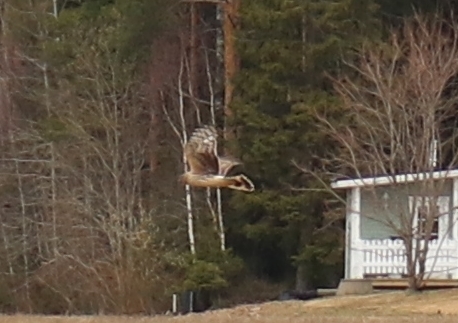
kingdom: Animalia
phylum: Chordata
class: Aves
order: Accipitriformes
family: Accipitridae
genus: Circus
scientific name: Circus cyaneus
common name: Hen harrier
